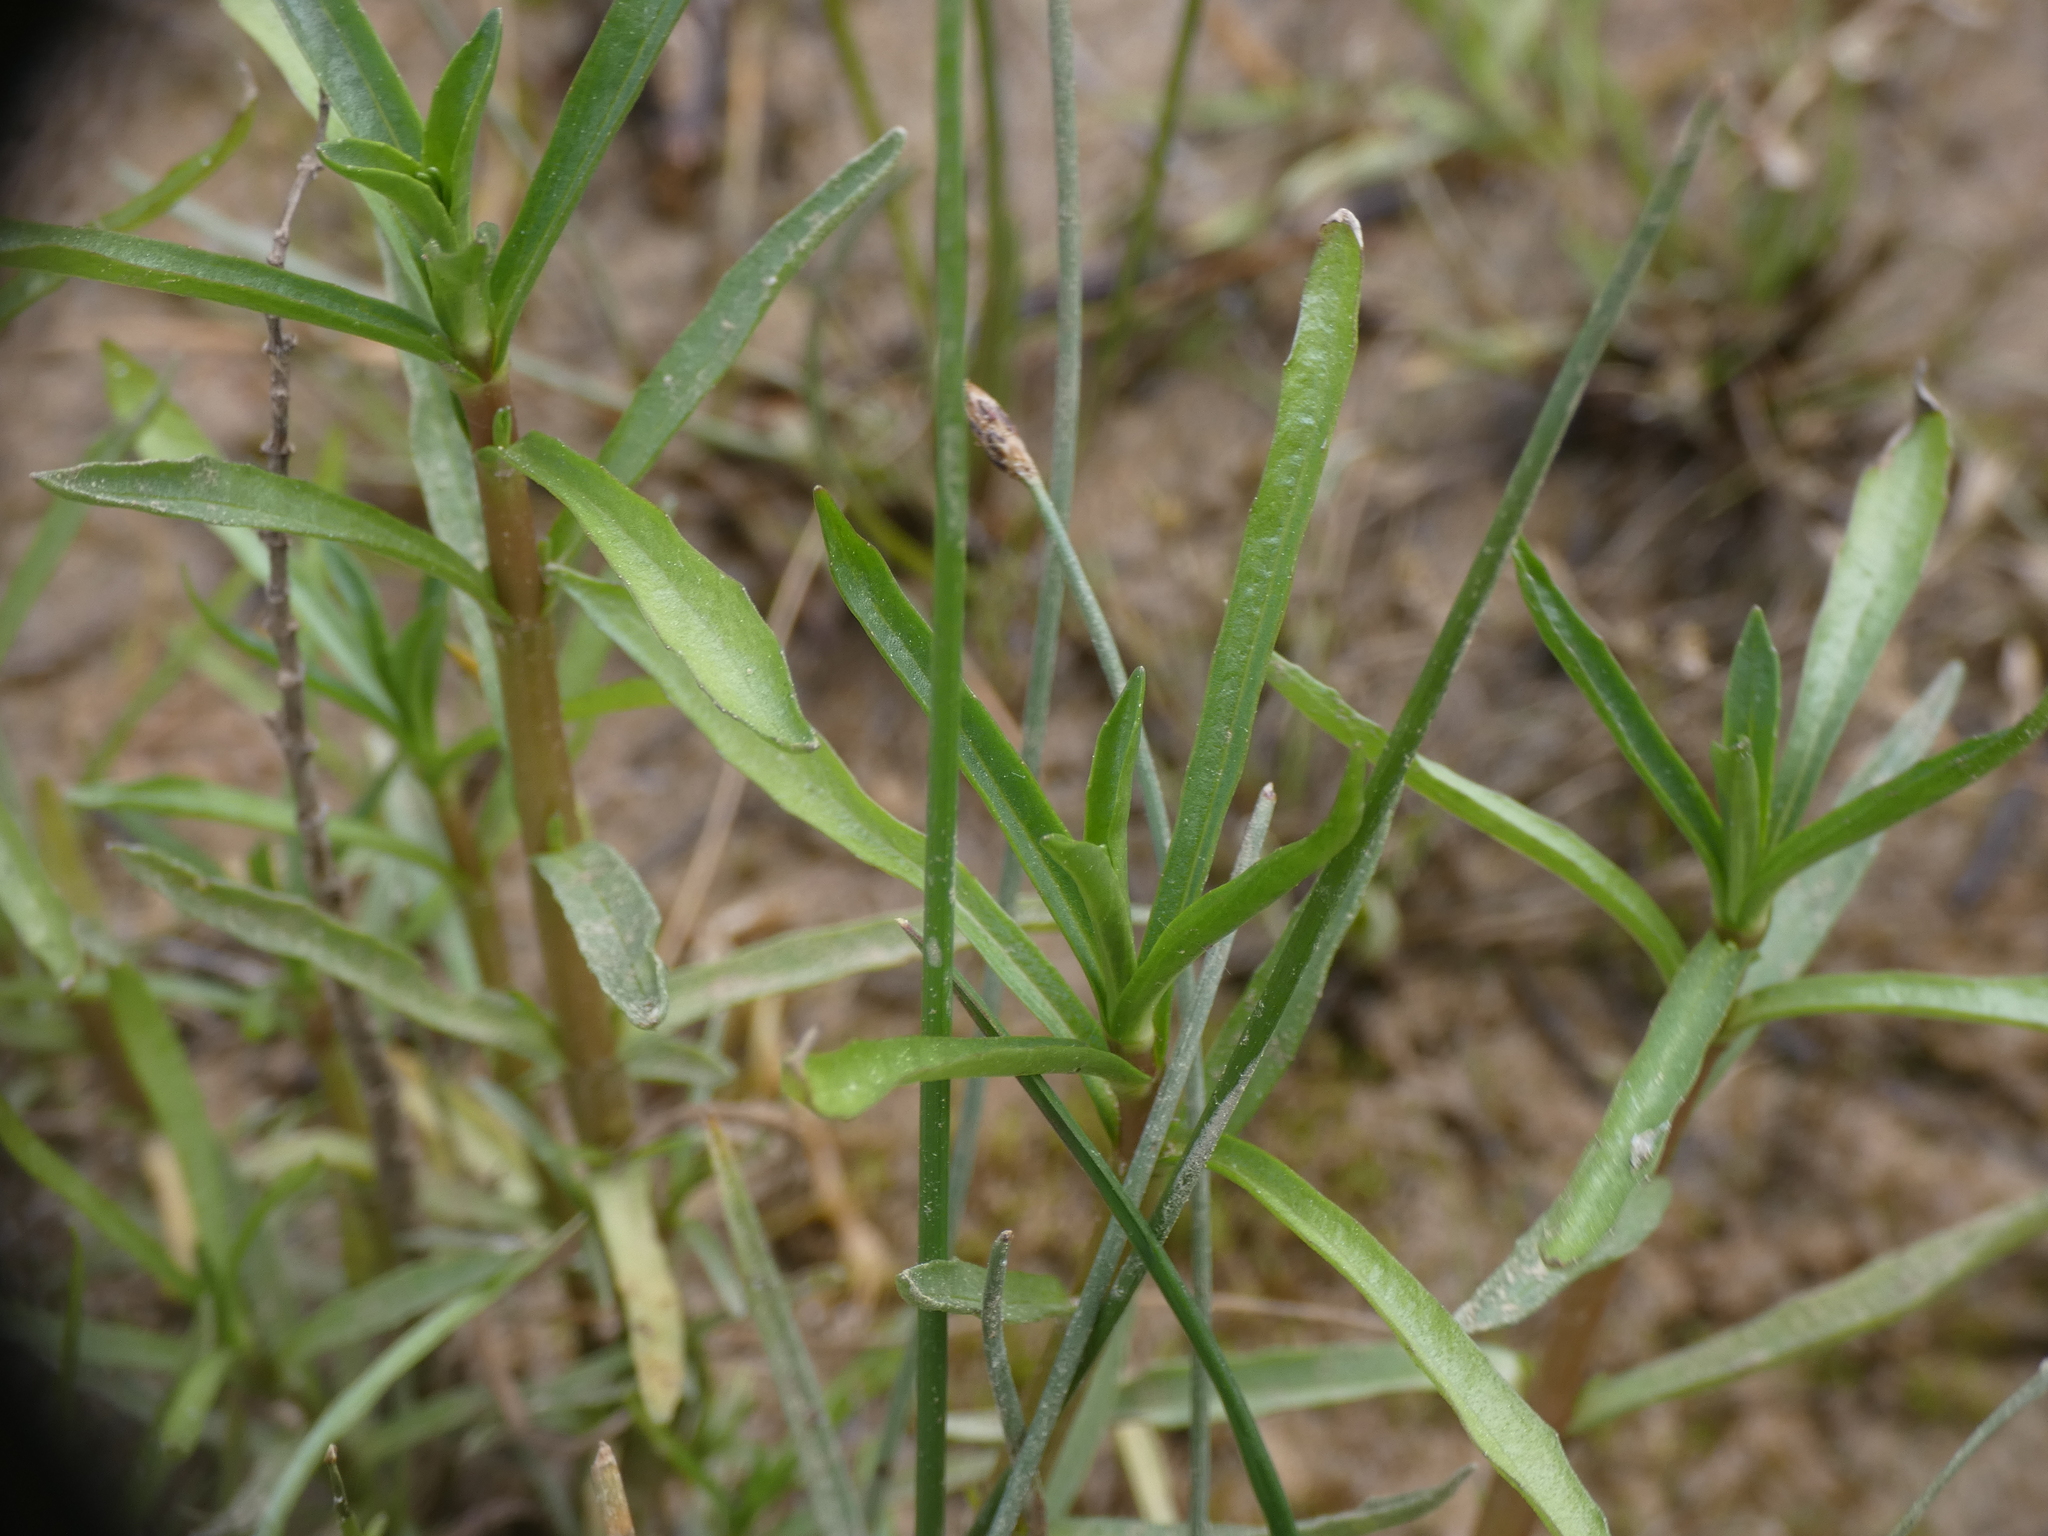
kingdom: Plantae
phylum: Tracheophyta
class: Magnoliopsida
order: Lamiales
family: Plantaginaceae
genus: Gratiola
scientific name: Gratiola officinalis
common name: Gratiola
